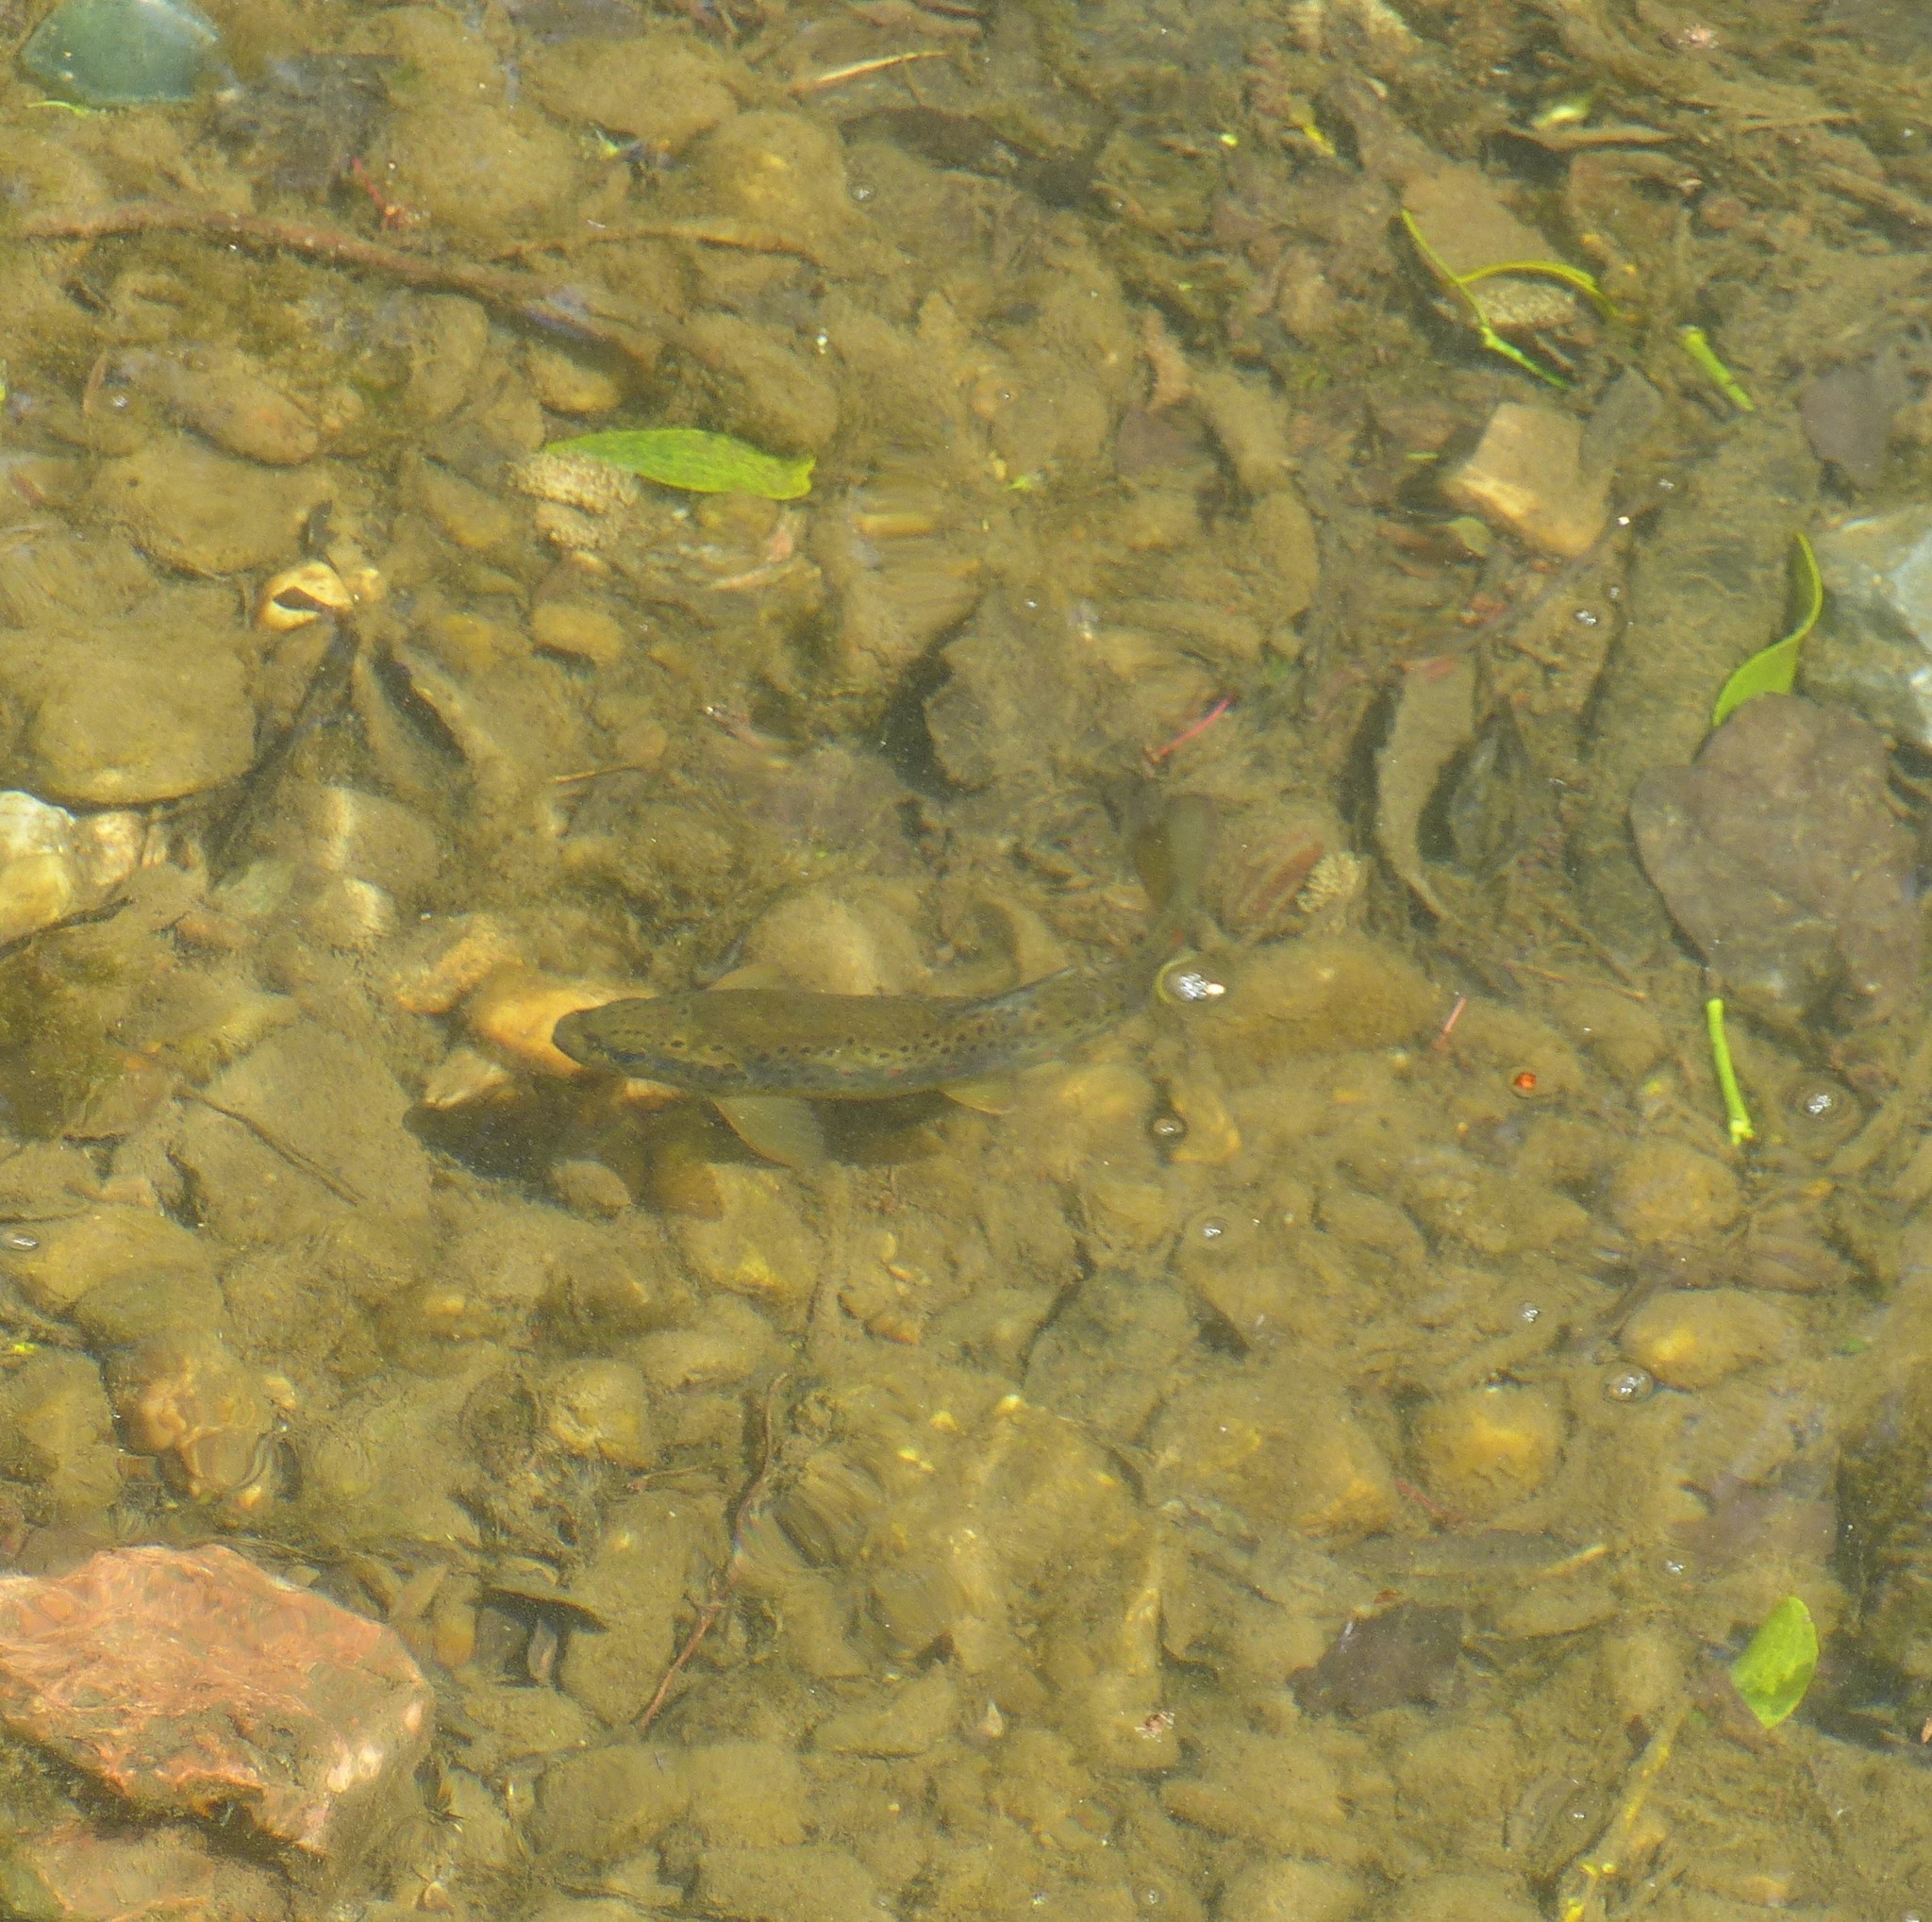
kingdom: Animalia
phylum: Chordata
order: Salmoniformes
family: Salmonidae
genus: Salmo
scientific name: Salmo trutta
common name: Brown trout
